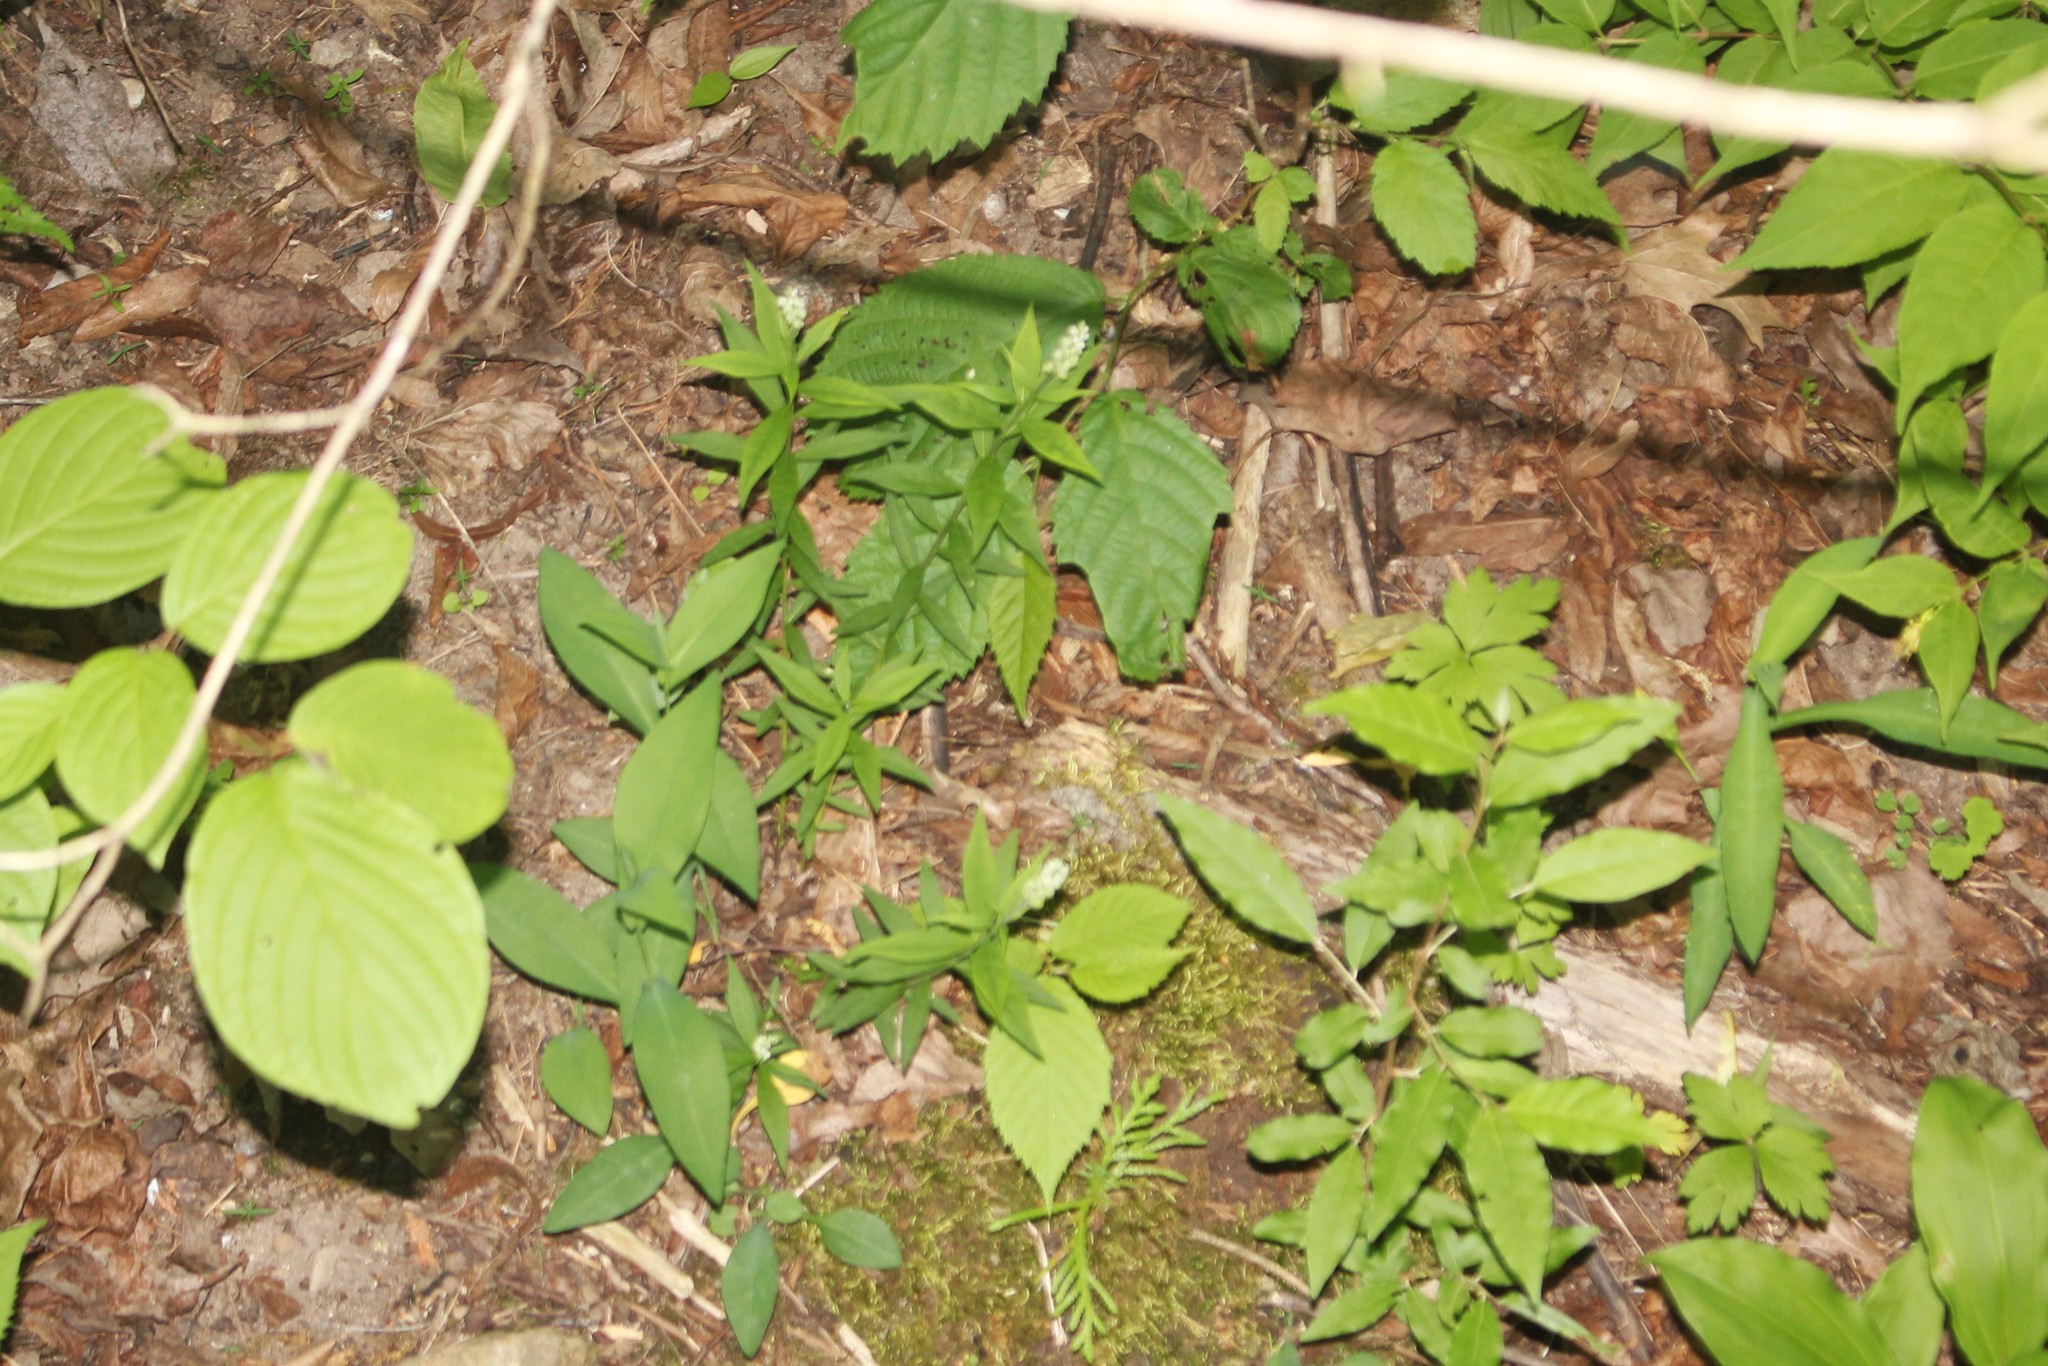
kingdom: Plantae
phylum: Tracheophyta
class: Magnoliopsida
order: Fabales
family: Polygalaceae
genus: Polygala
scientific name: Polygala senega
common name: Seneca snakeroot
